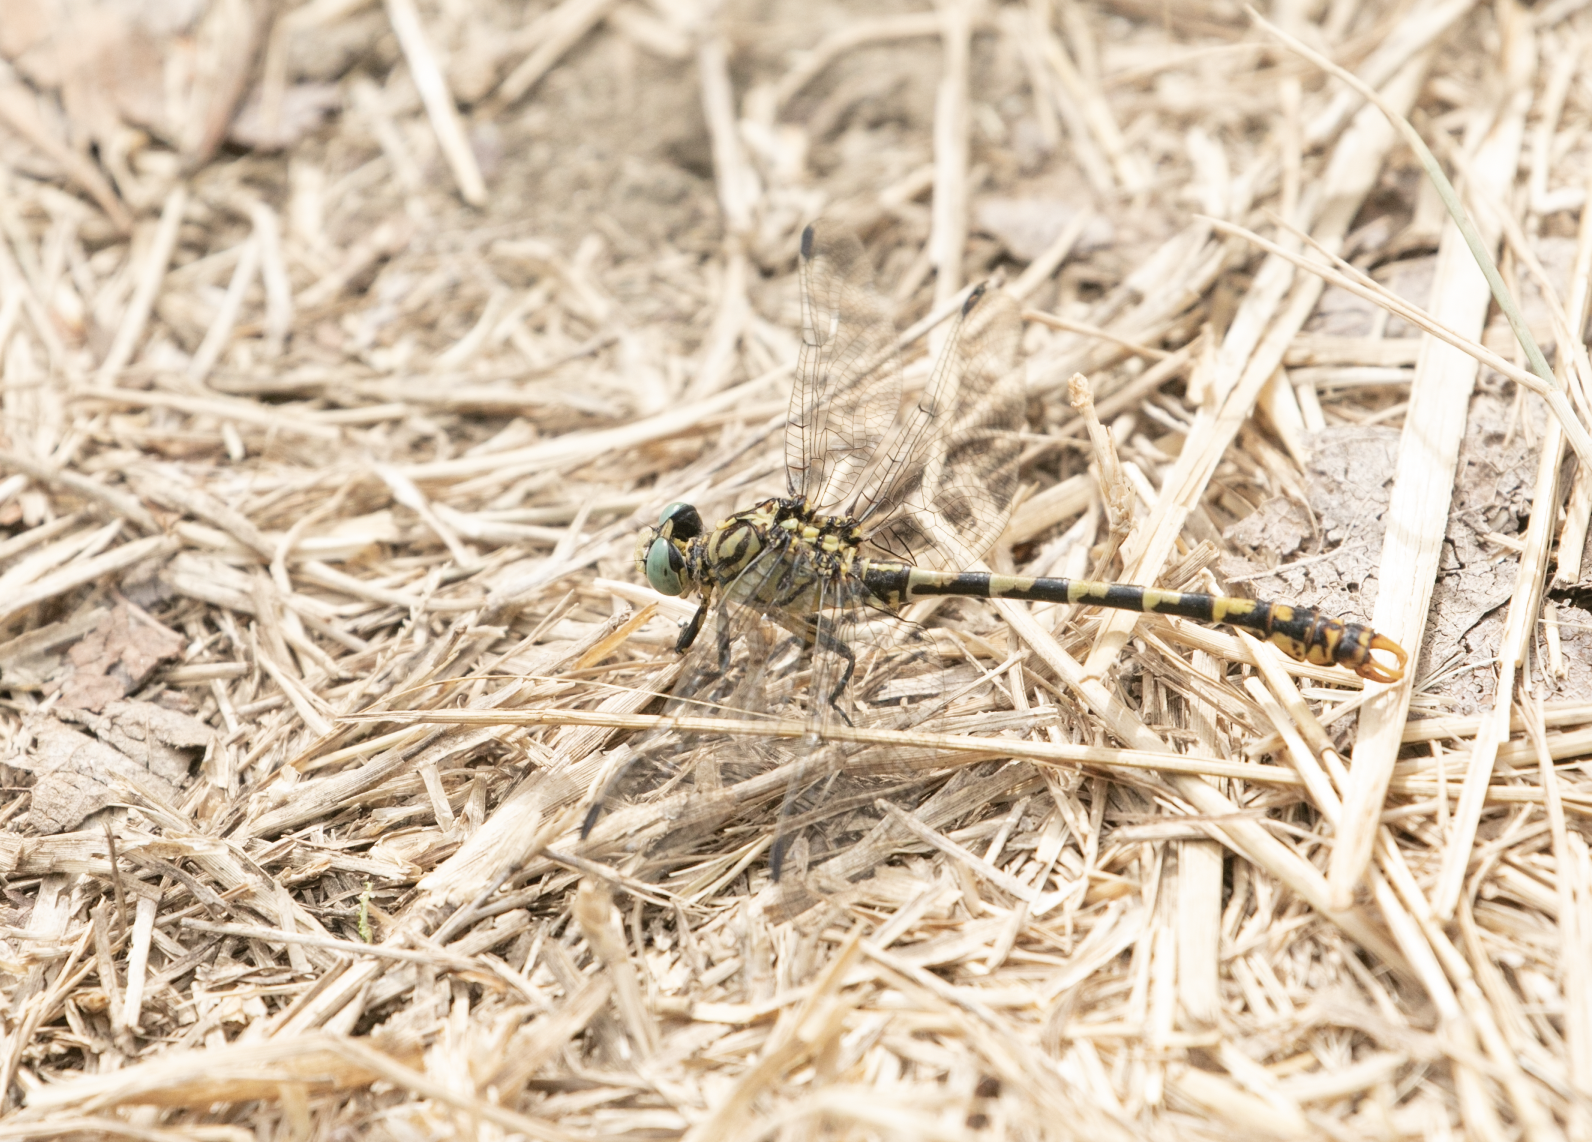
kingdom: Animalia
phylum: Arthropoda
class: Insecta
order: Odonata
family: Gomphidae
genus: Onychogomphus
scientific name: Onychogomphus forcipatus
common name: Small pincertail
